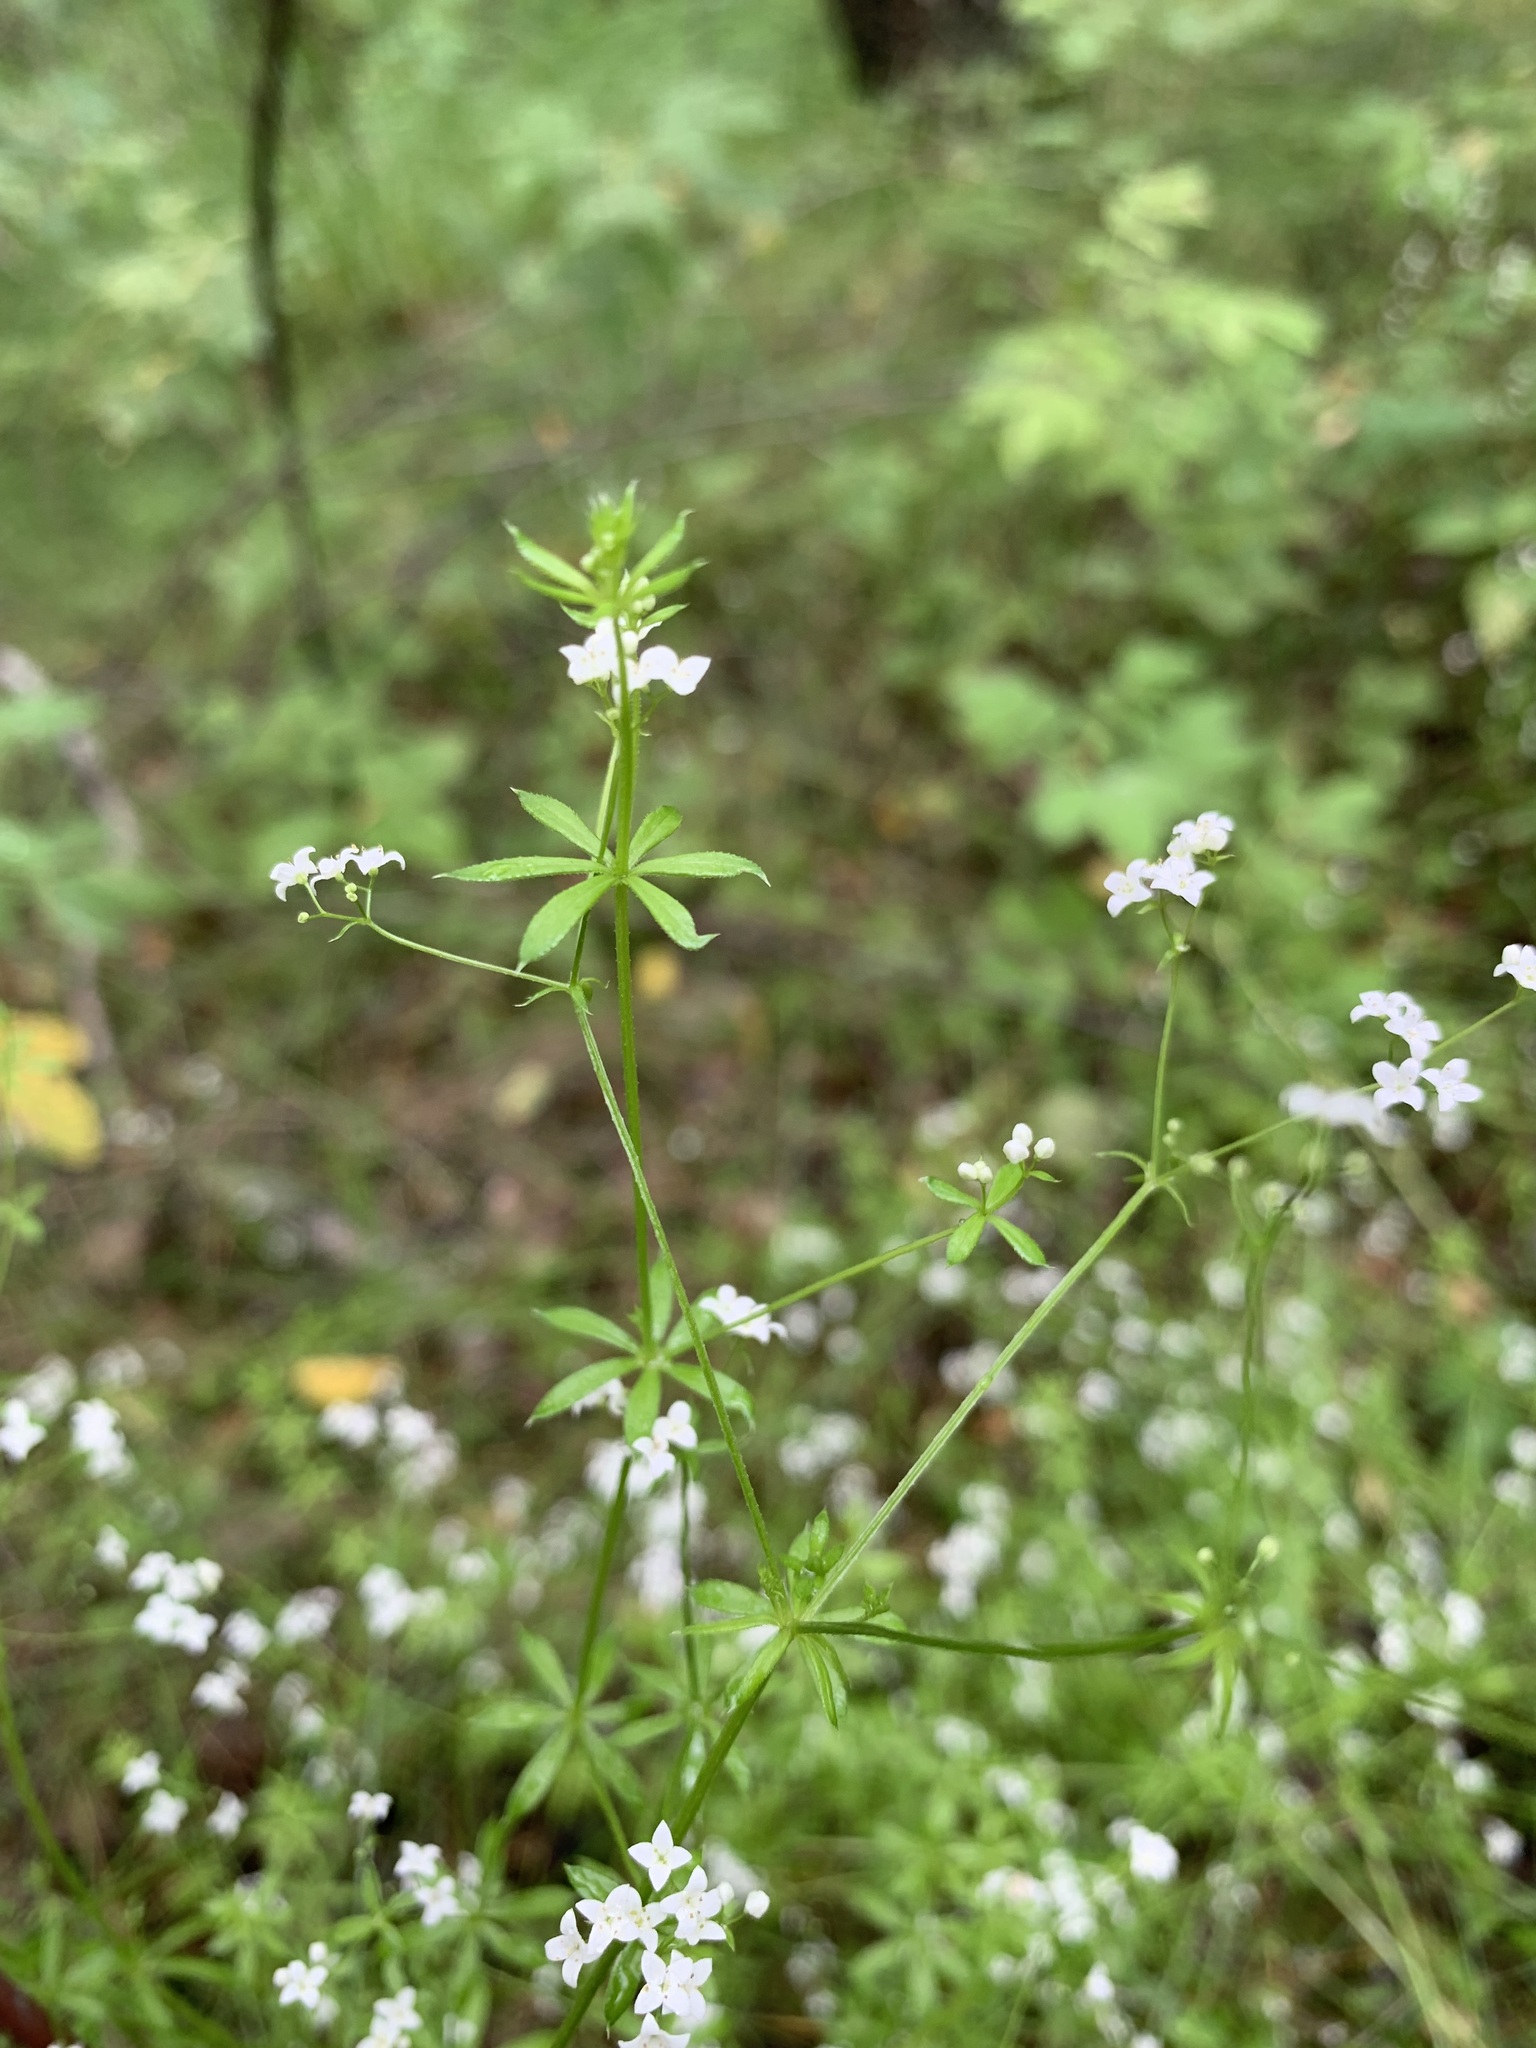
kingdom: Plantae
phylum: Tracheophyta
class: Magnoliopsida
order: Gentianales
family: Rubiaceae
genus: Galium
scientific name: Galium uliginosum
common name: Fen bedstraw
